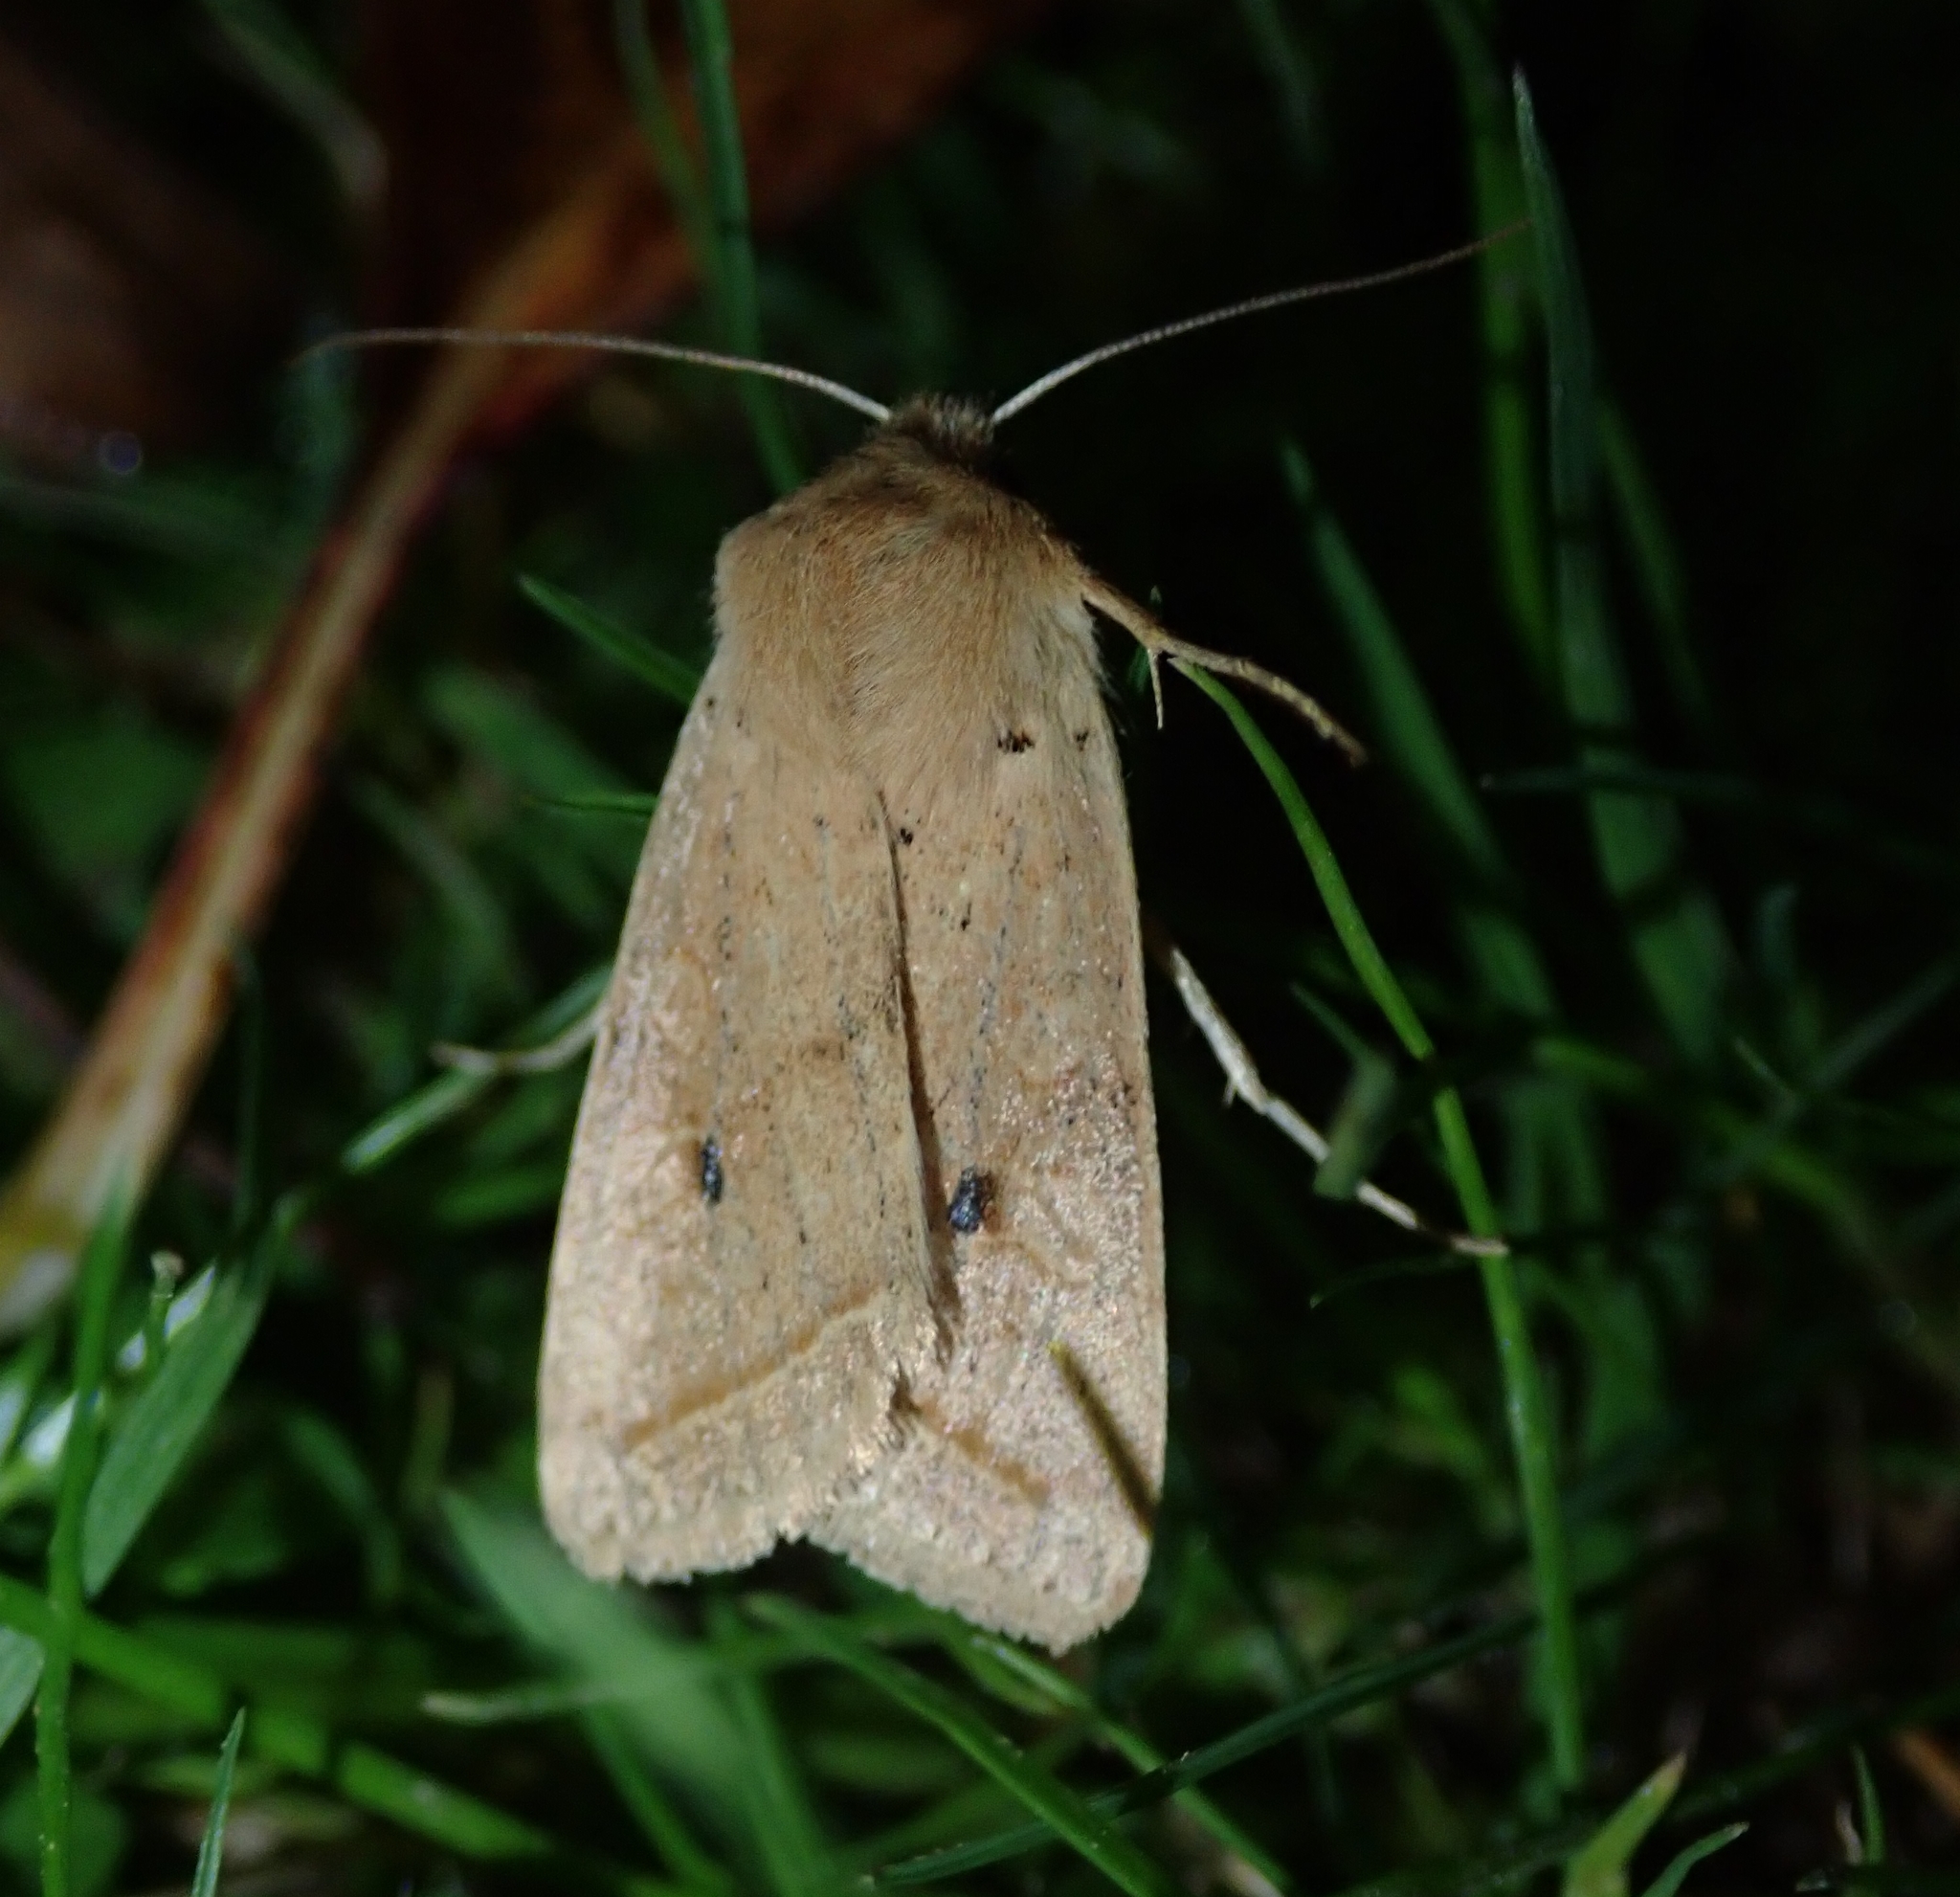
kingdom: Animalia
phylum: Arthropoda
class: Insecta
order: Lepidoptera
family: Noctuidae
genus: Agrochola
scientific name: Agrochola macilenta
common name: Yellow-line quaker
